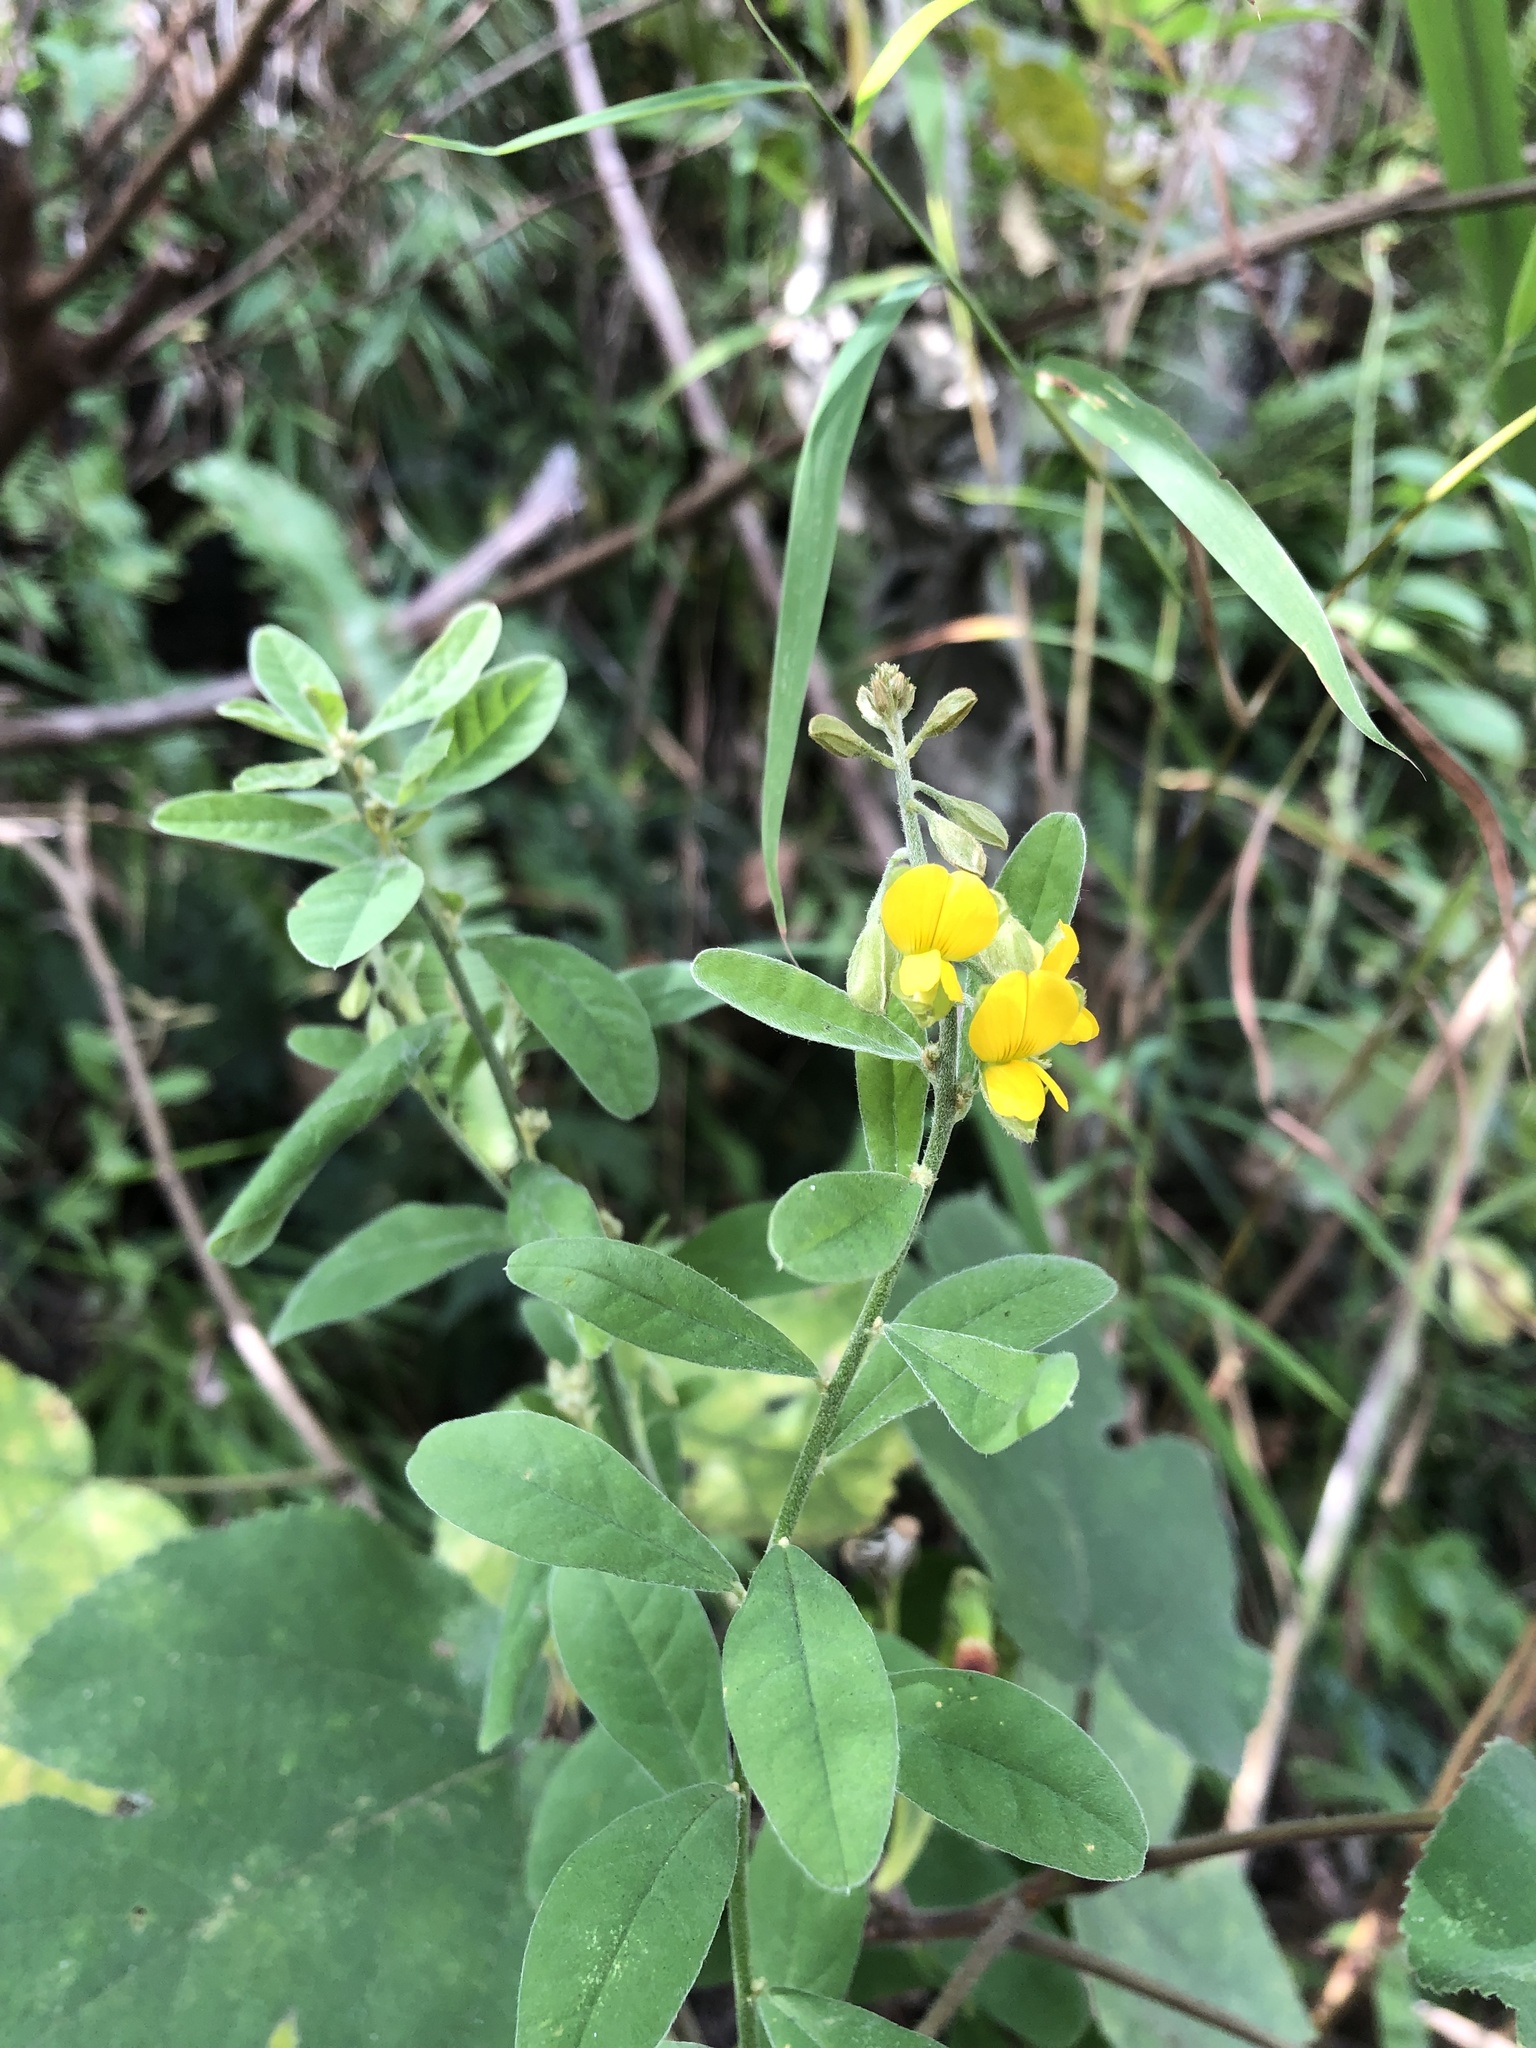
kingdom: Plantae
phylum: Tracheophyta
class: Magnoliopsida
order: Fabales
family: Fabaceae
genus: Crotalaria
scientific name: Crotalaria albida
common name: Taiwan crotalaria
